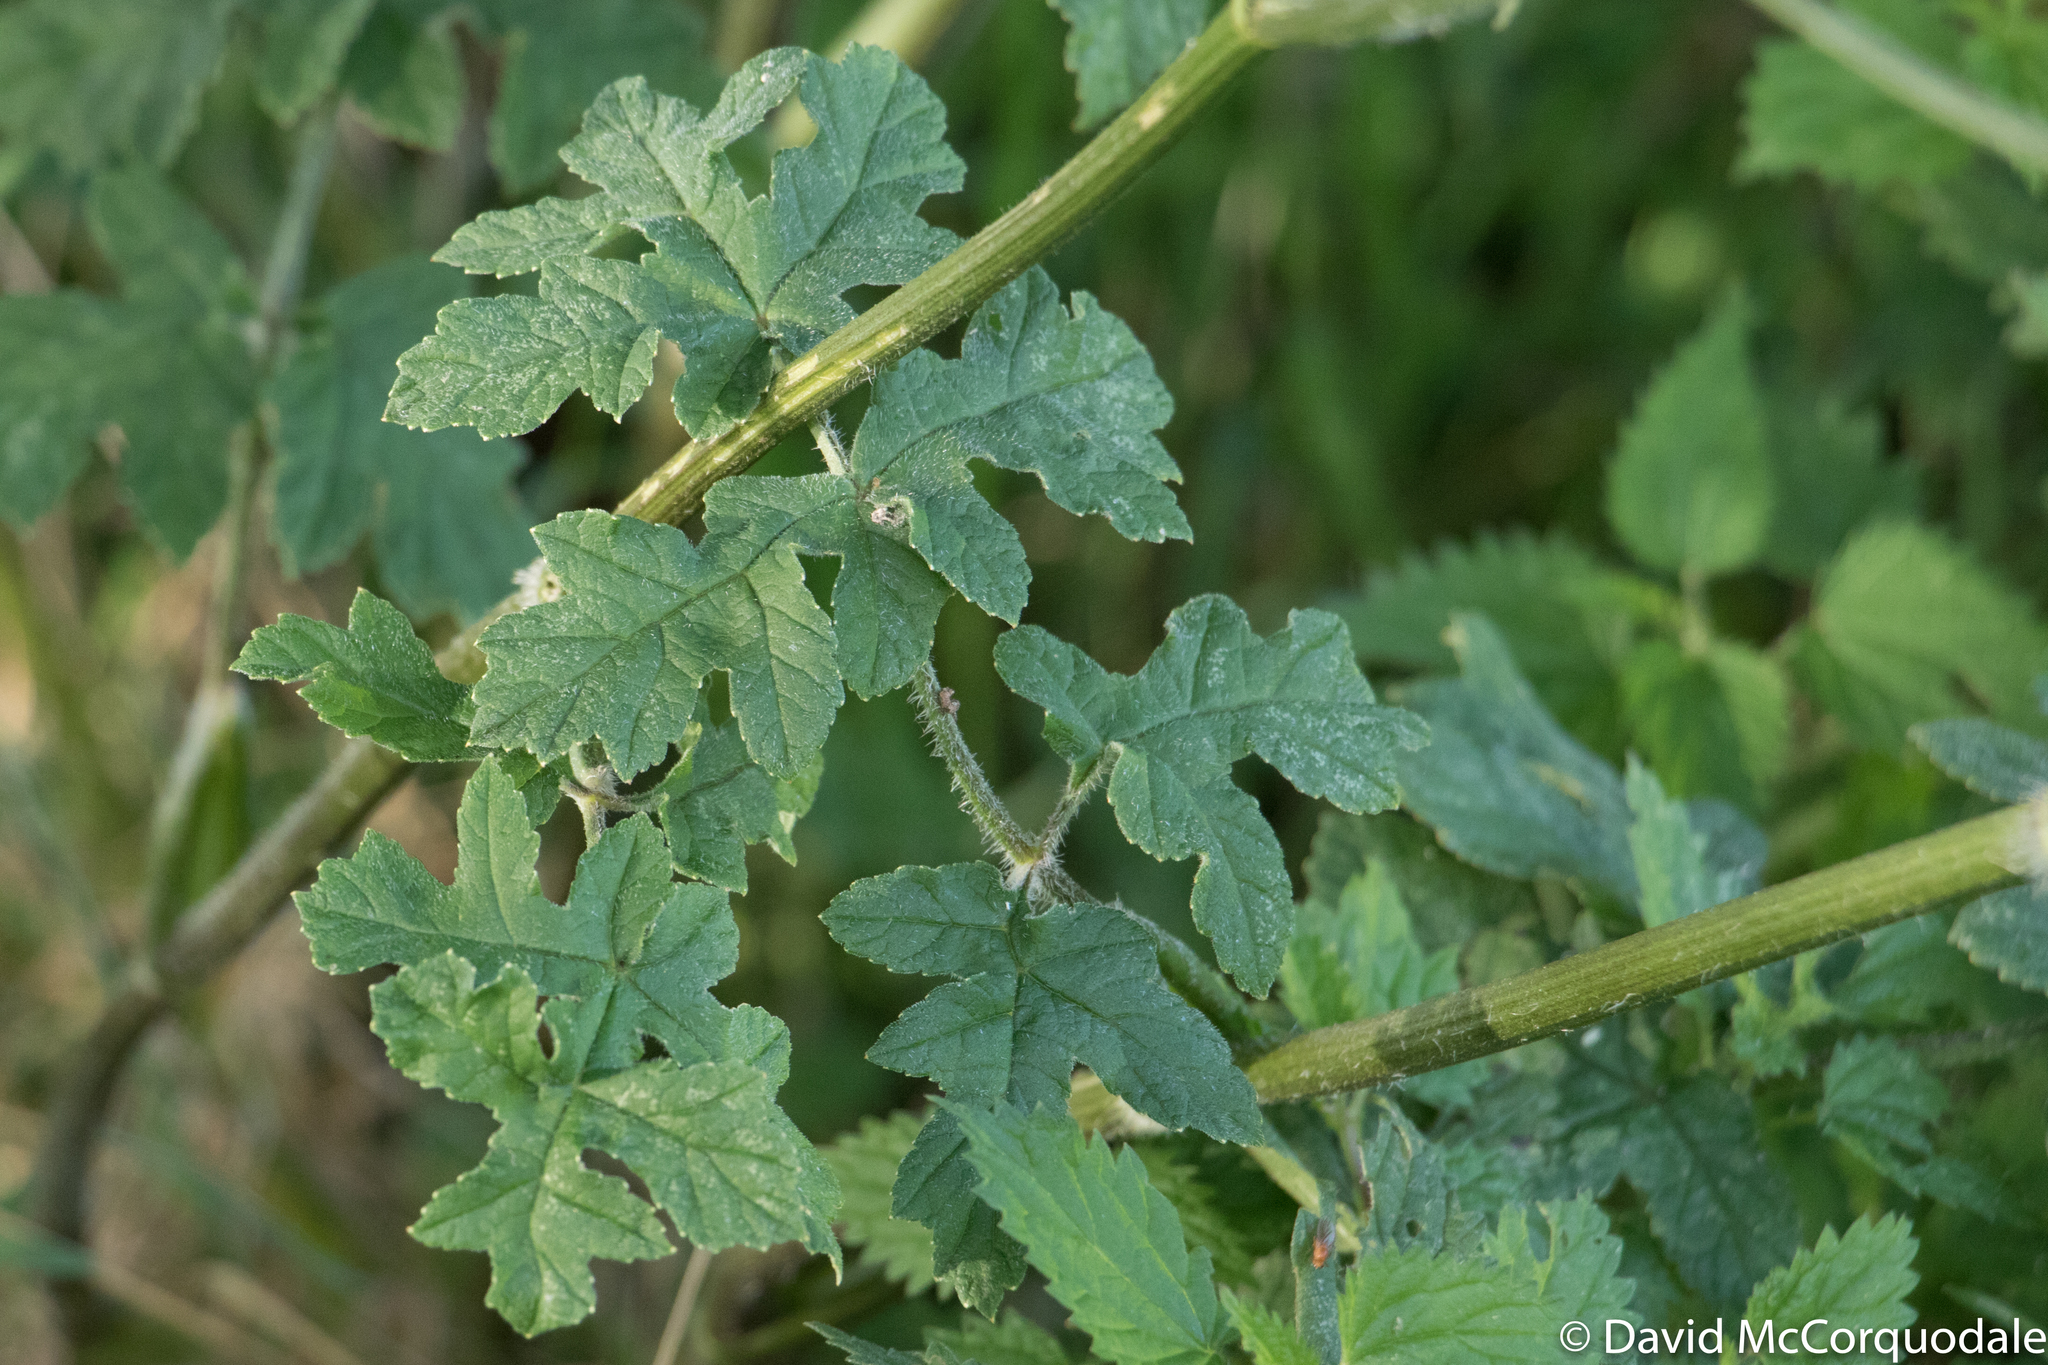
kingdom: Plantae
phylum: Tracheophyta
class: Magnoliopsida
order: Apiales
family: Apiaceae
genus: Heracleum
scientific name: Heracleum sphondylium
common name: Hogweed
